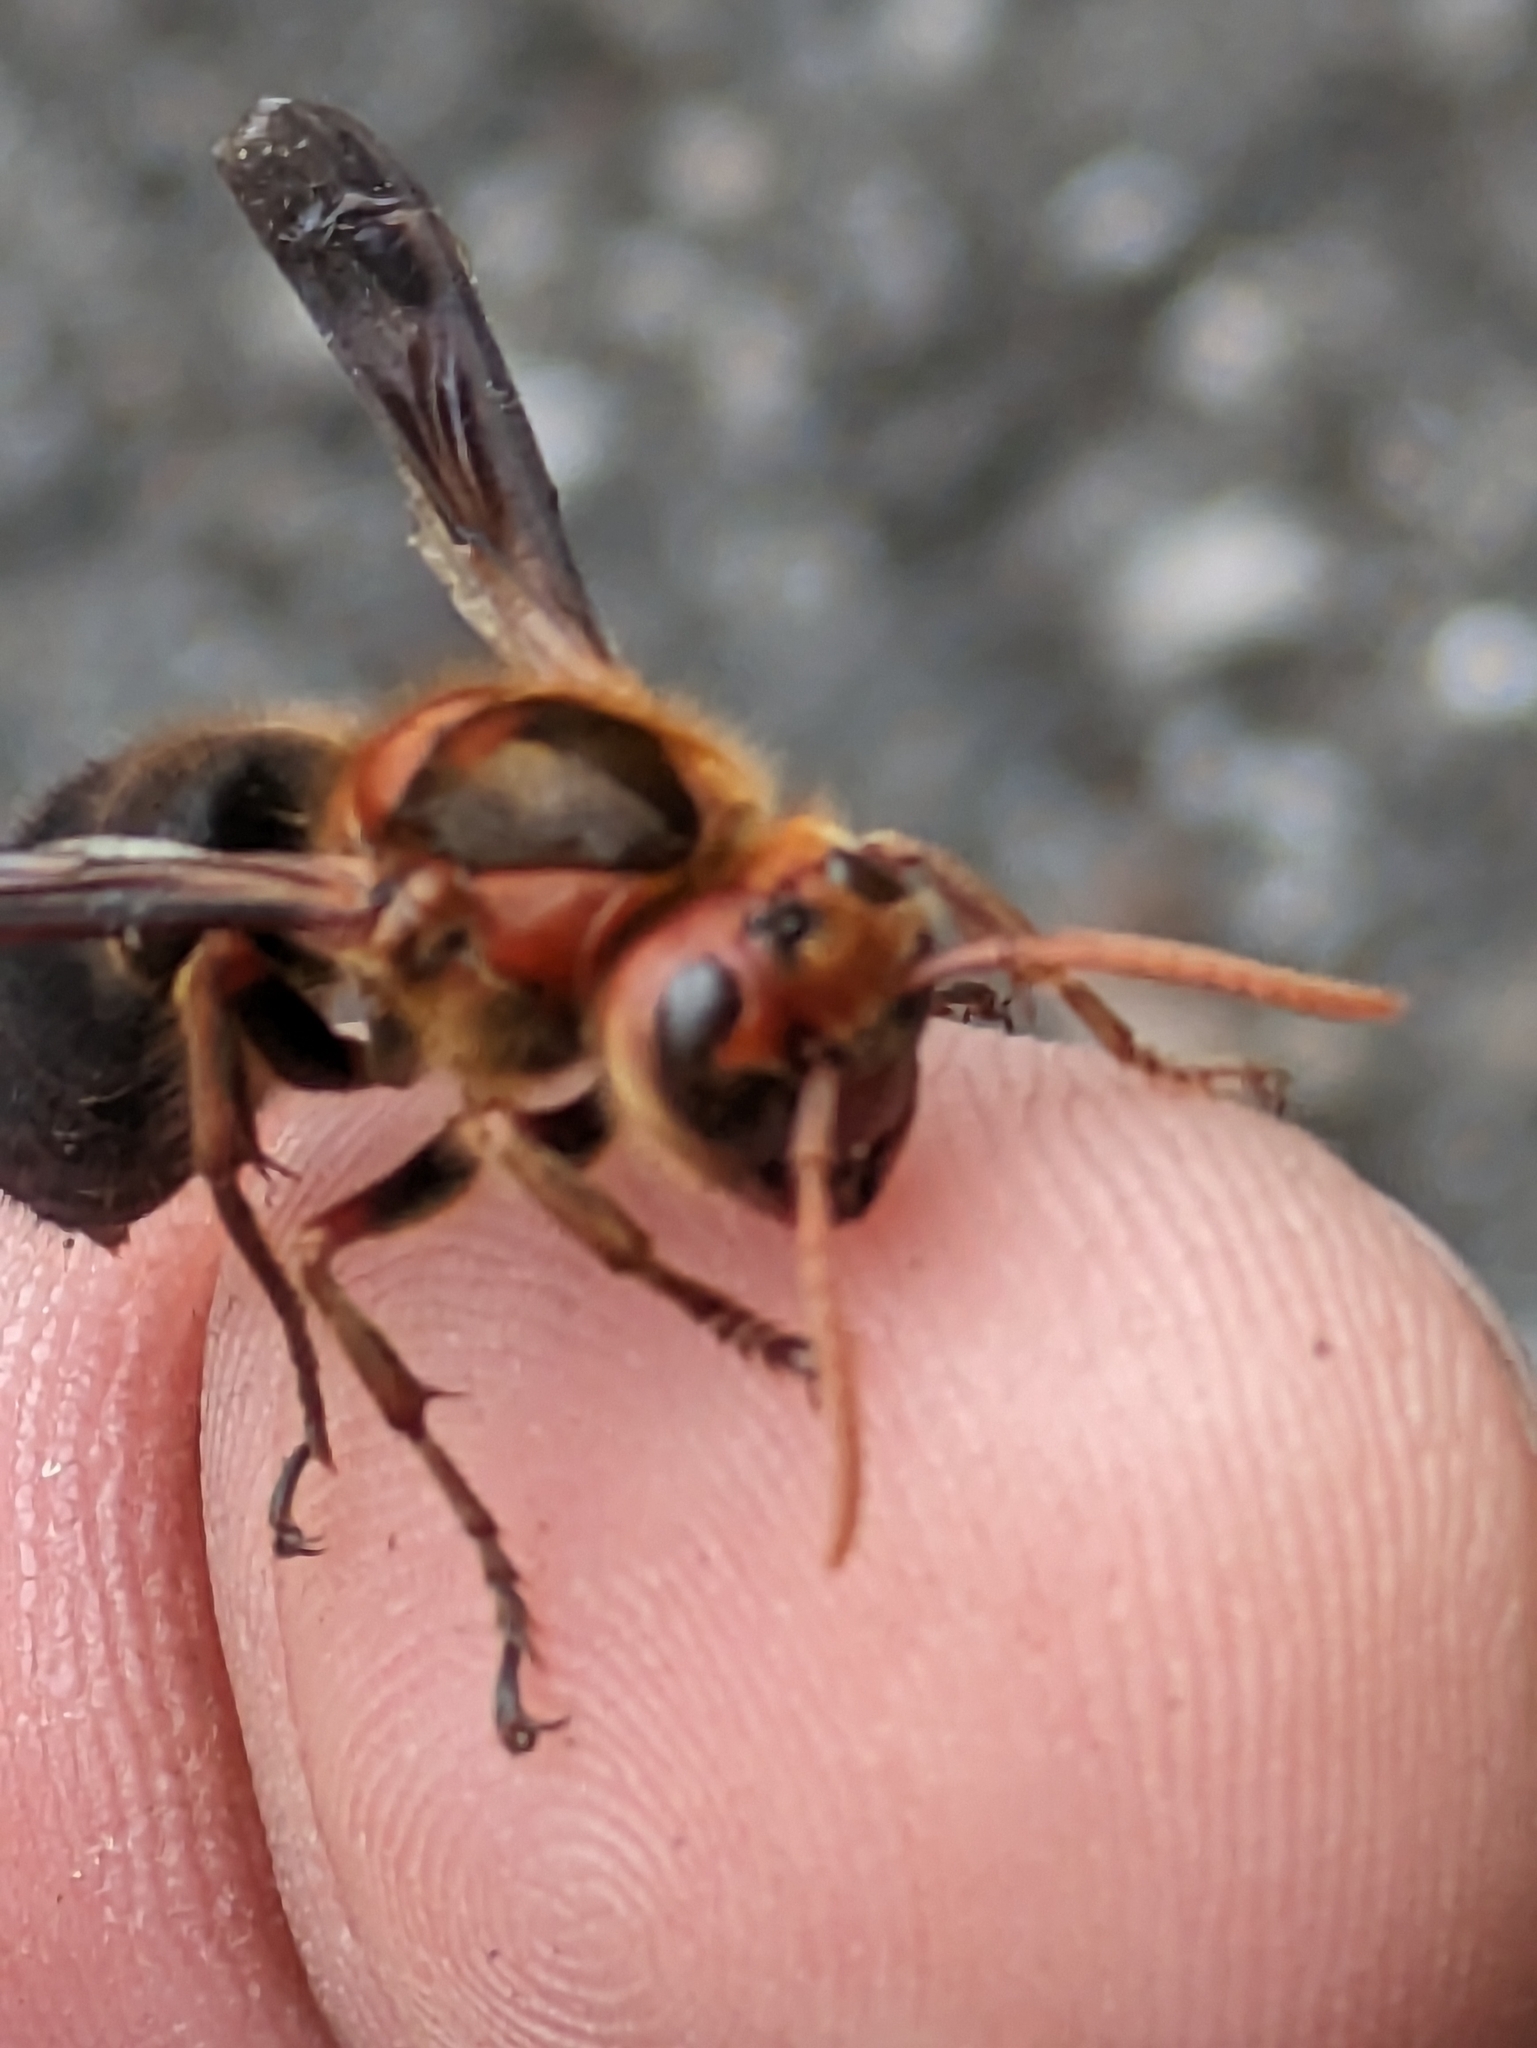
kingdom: Animalia
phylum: Arthropoda
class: Insecta
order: Hymenoptera
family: Vespidae
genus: Vespa
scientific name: Vespa basalis
